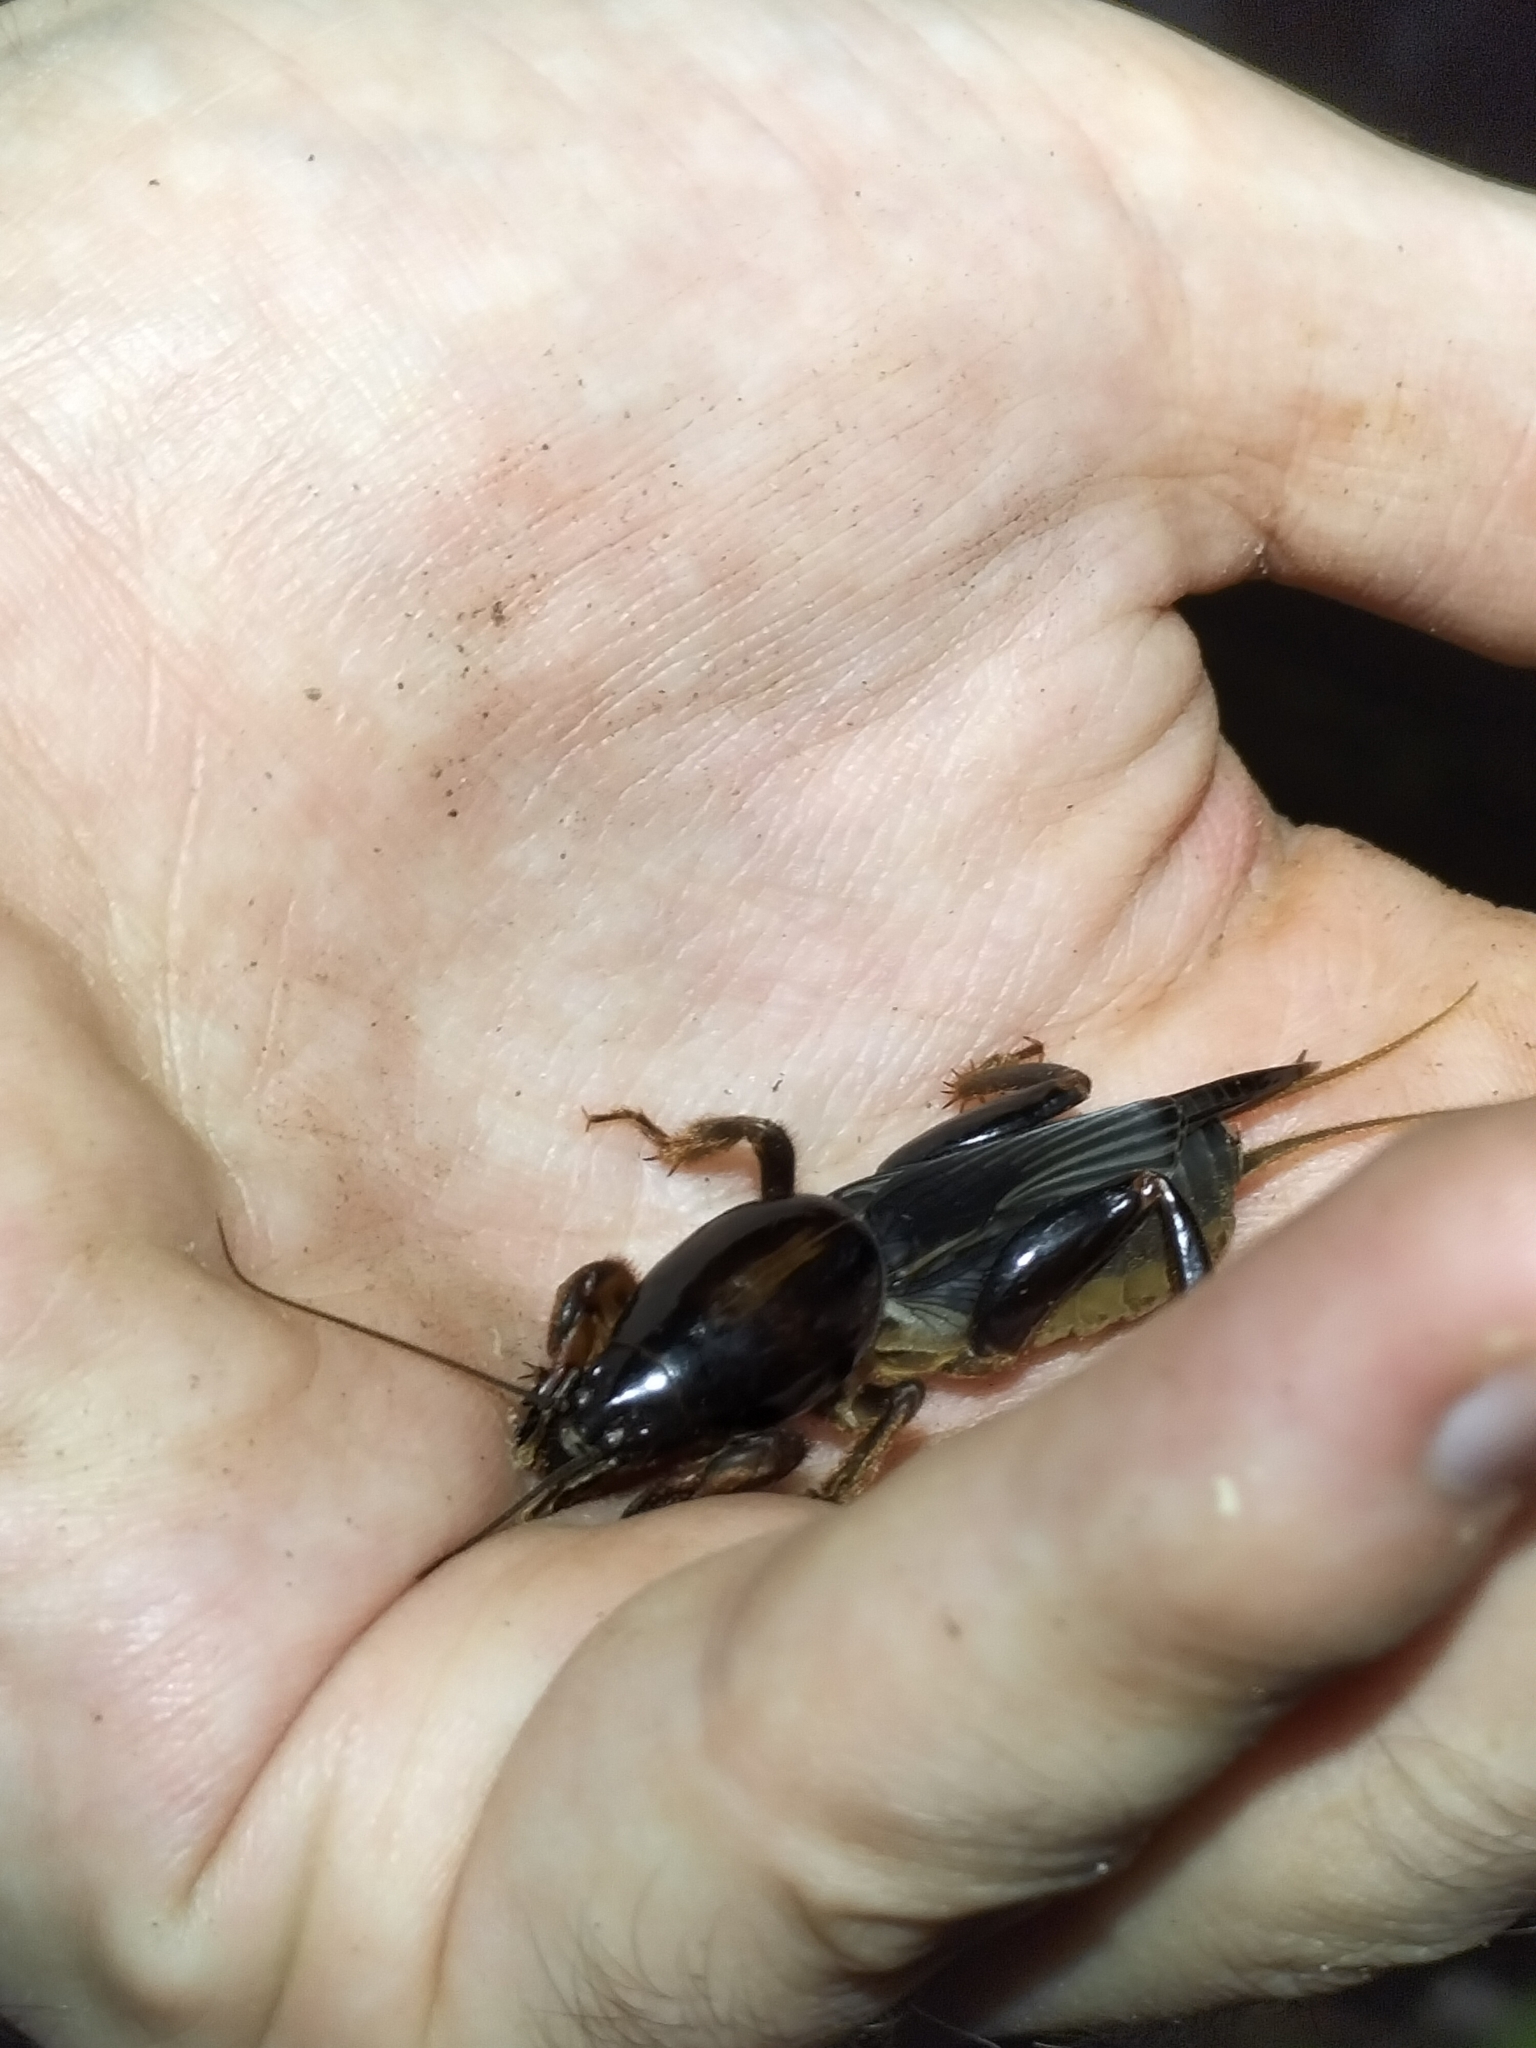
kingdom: Animalia
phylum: Arthropoda
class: Insecta
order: Orthoptera
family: Gryllotalpidae
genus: Gryllotalpa
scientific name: Gryllotalpa pluvialis
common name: Chirping mole cricket
